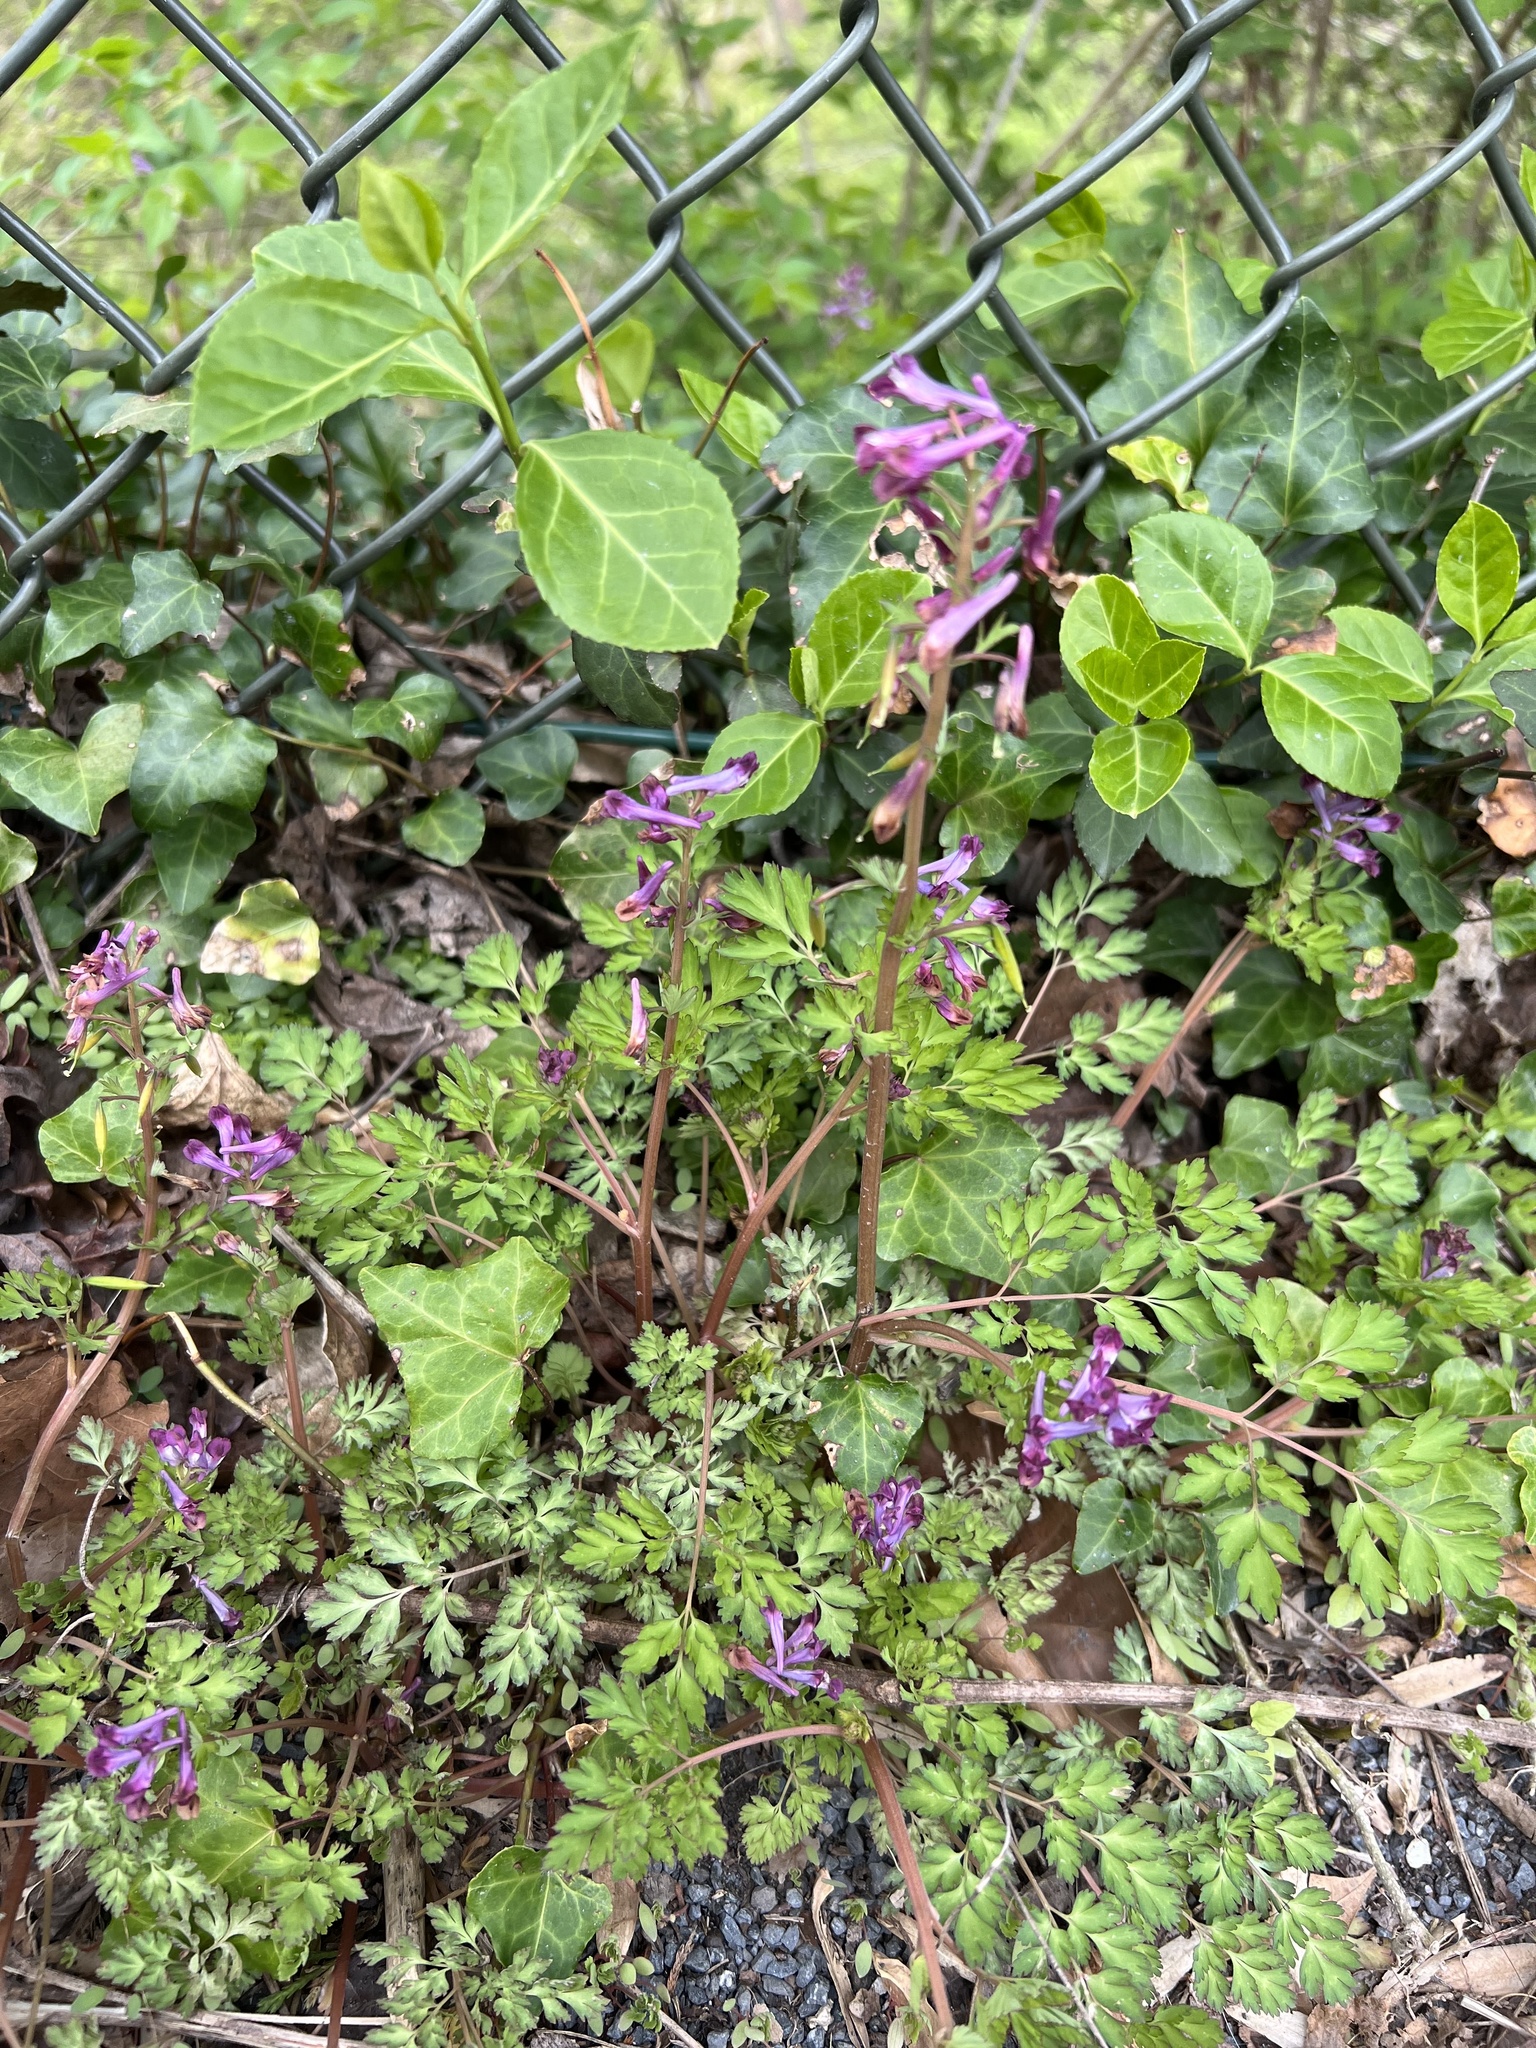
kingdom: Plantae
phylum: Tracheophyta
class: Magnoliopsida
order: Ranunculales
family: Papaveraceae
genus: Corydalis
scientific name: Corydalis incisa
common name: Incised fumewort
